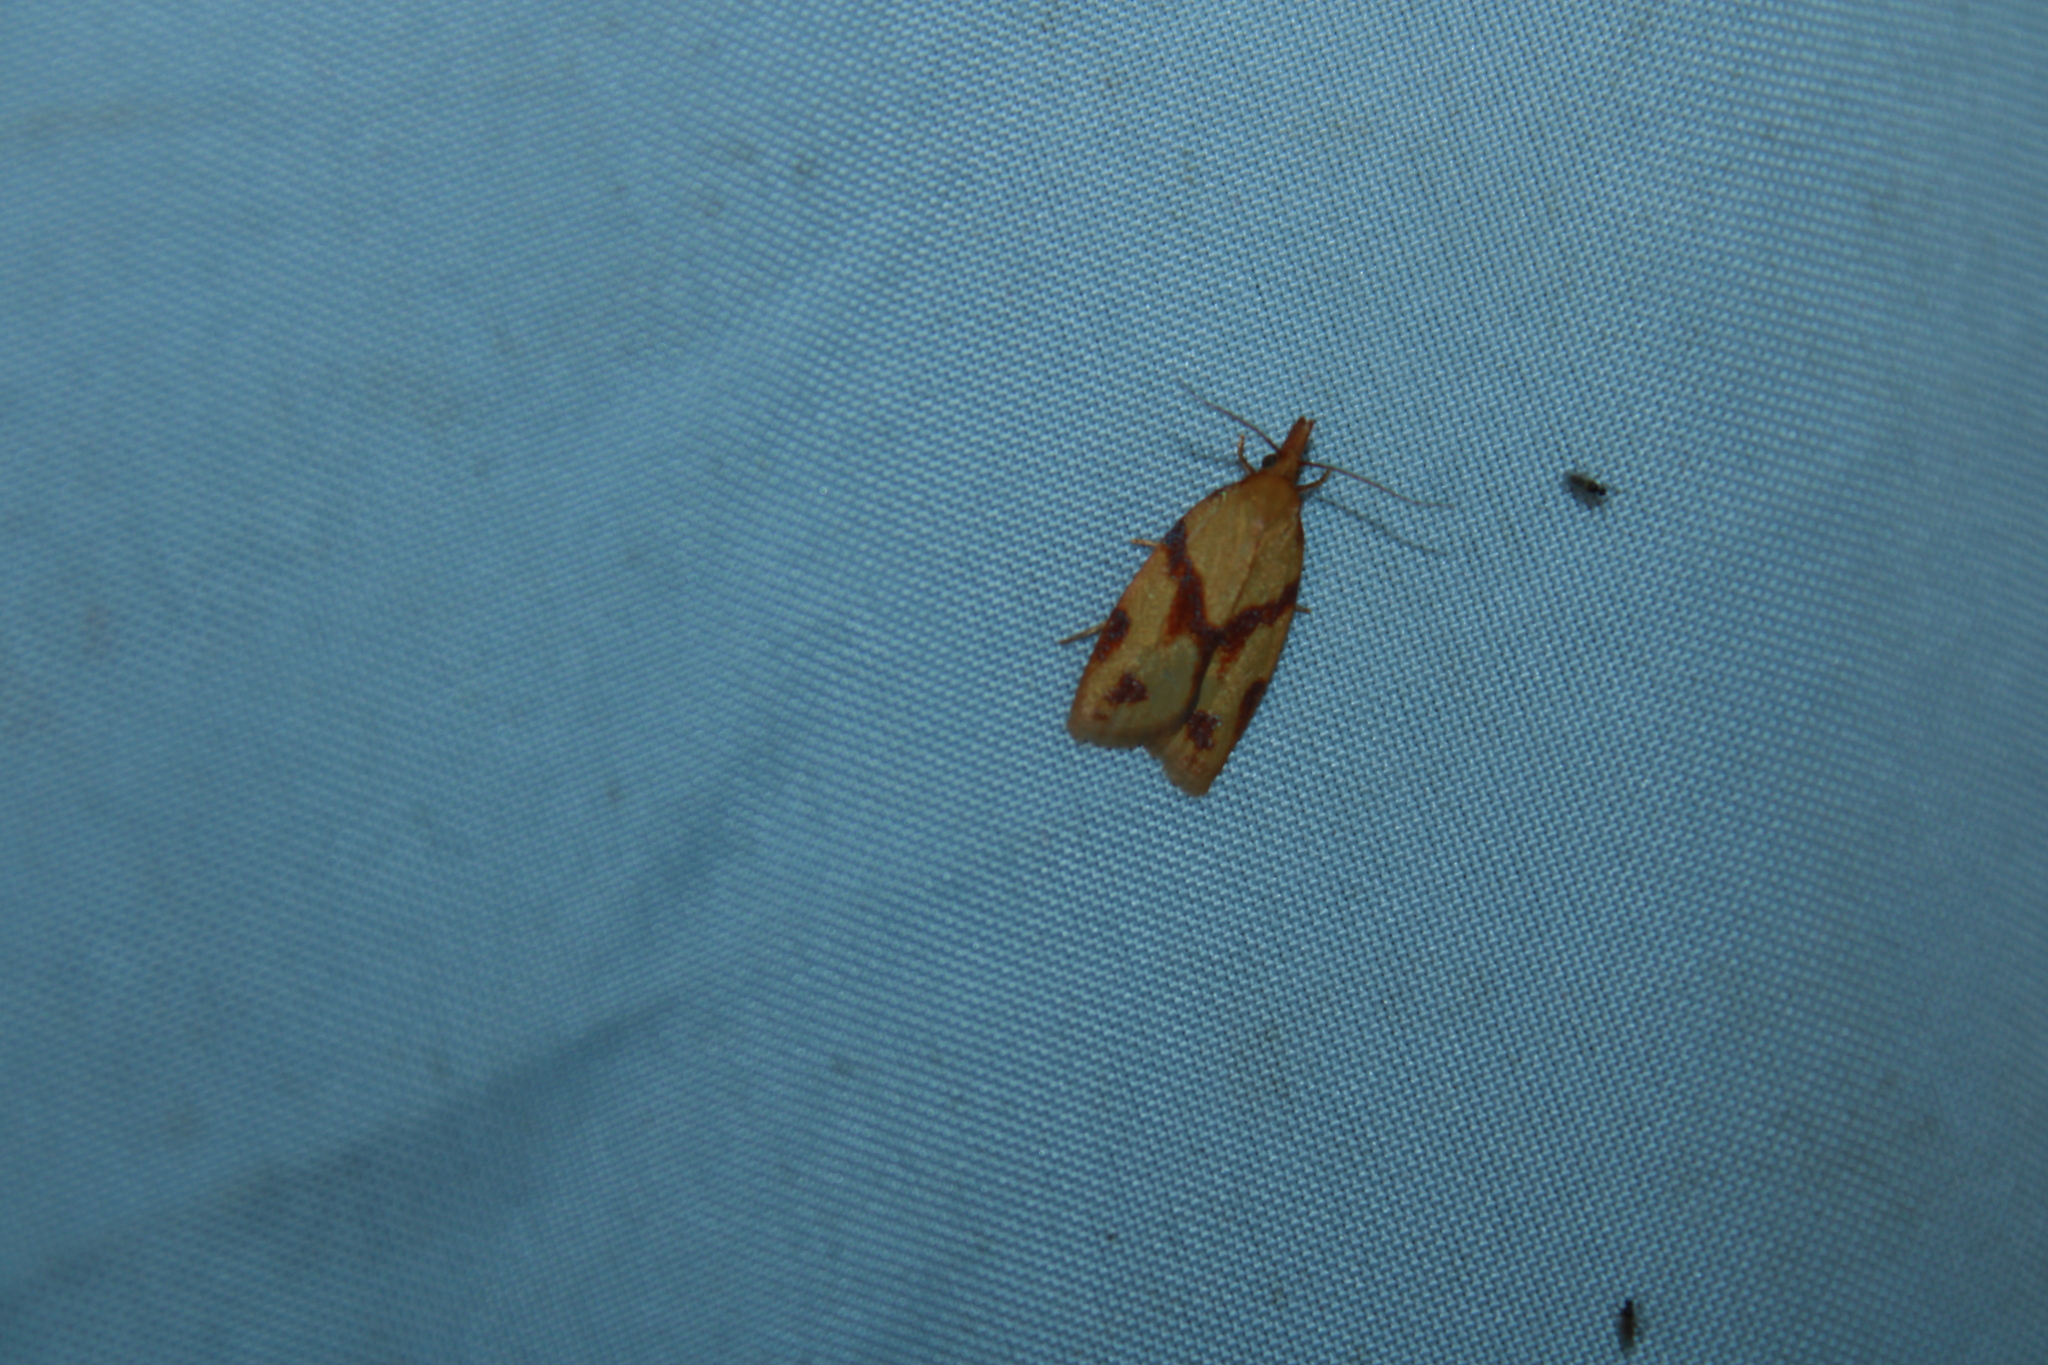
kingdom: Animalia
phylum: Arthropoda
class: Insecta
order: Lepidoptera
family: Tortricidae
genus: Sparganothis
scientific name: Sparganothis unifasciana
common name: One-lined sparganothis moth
